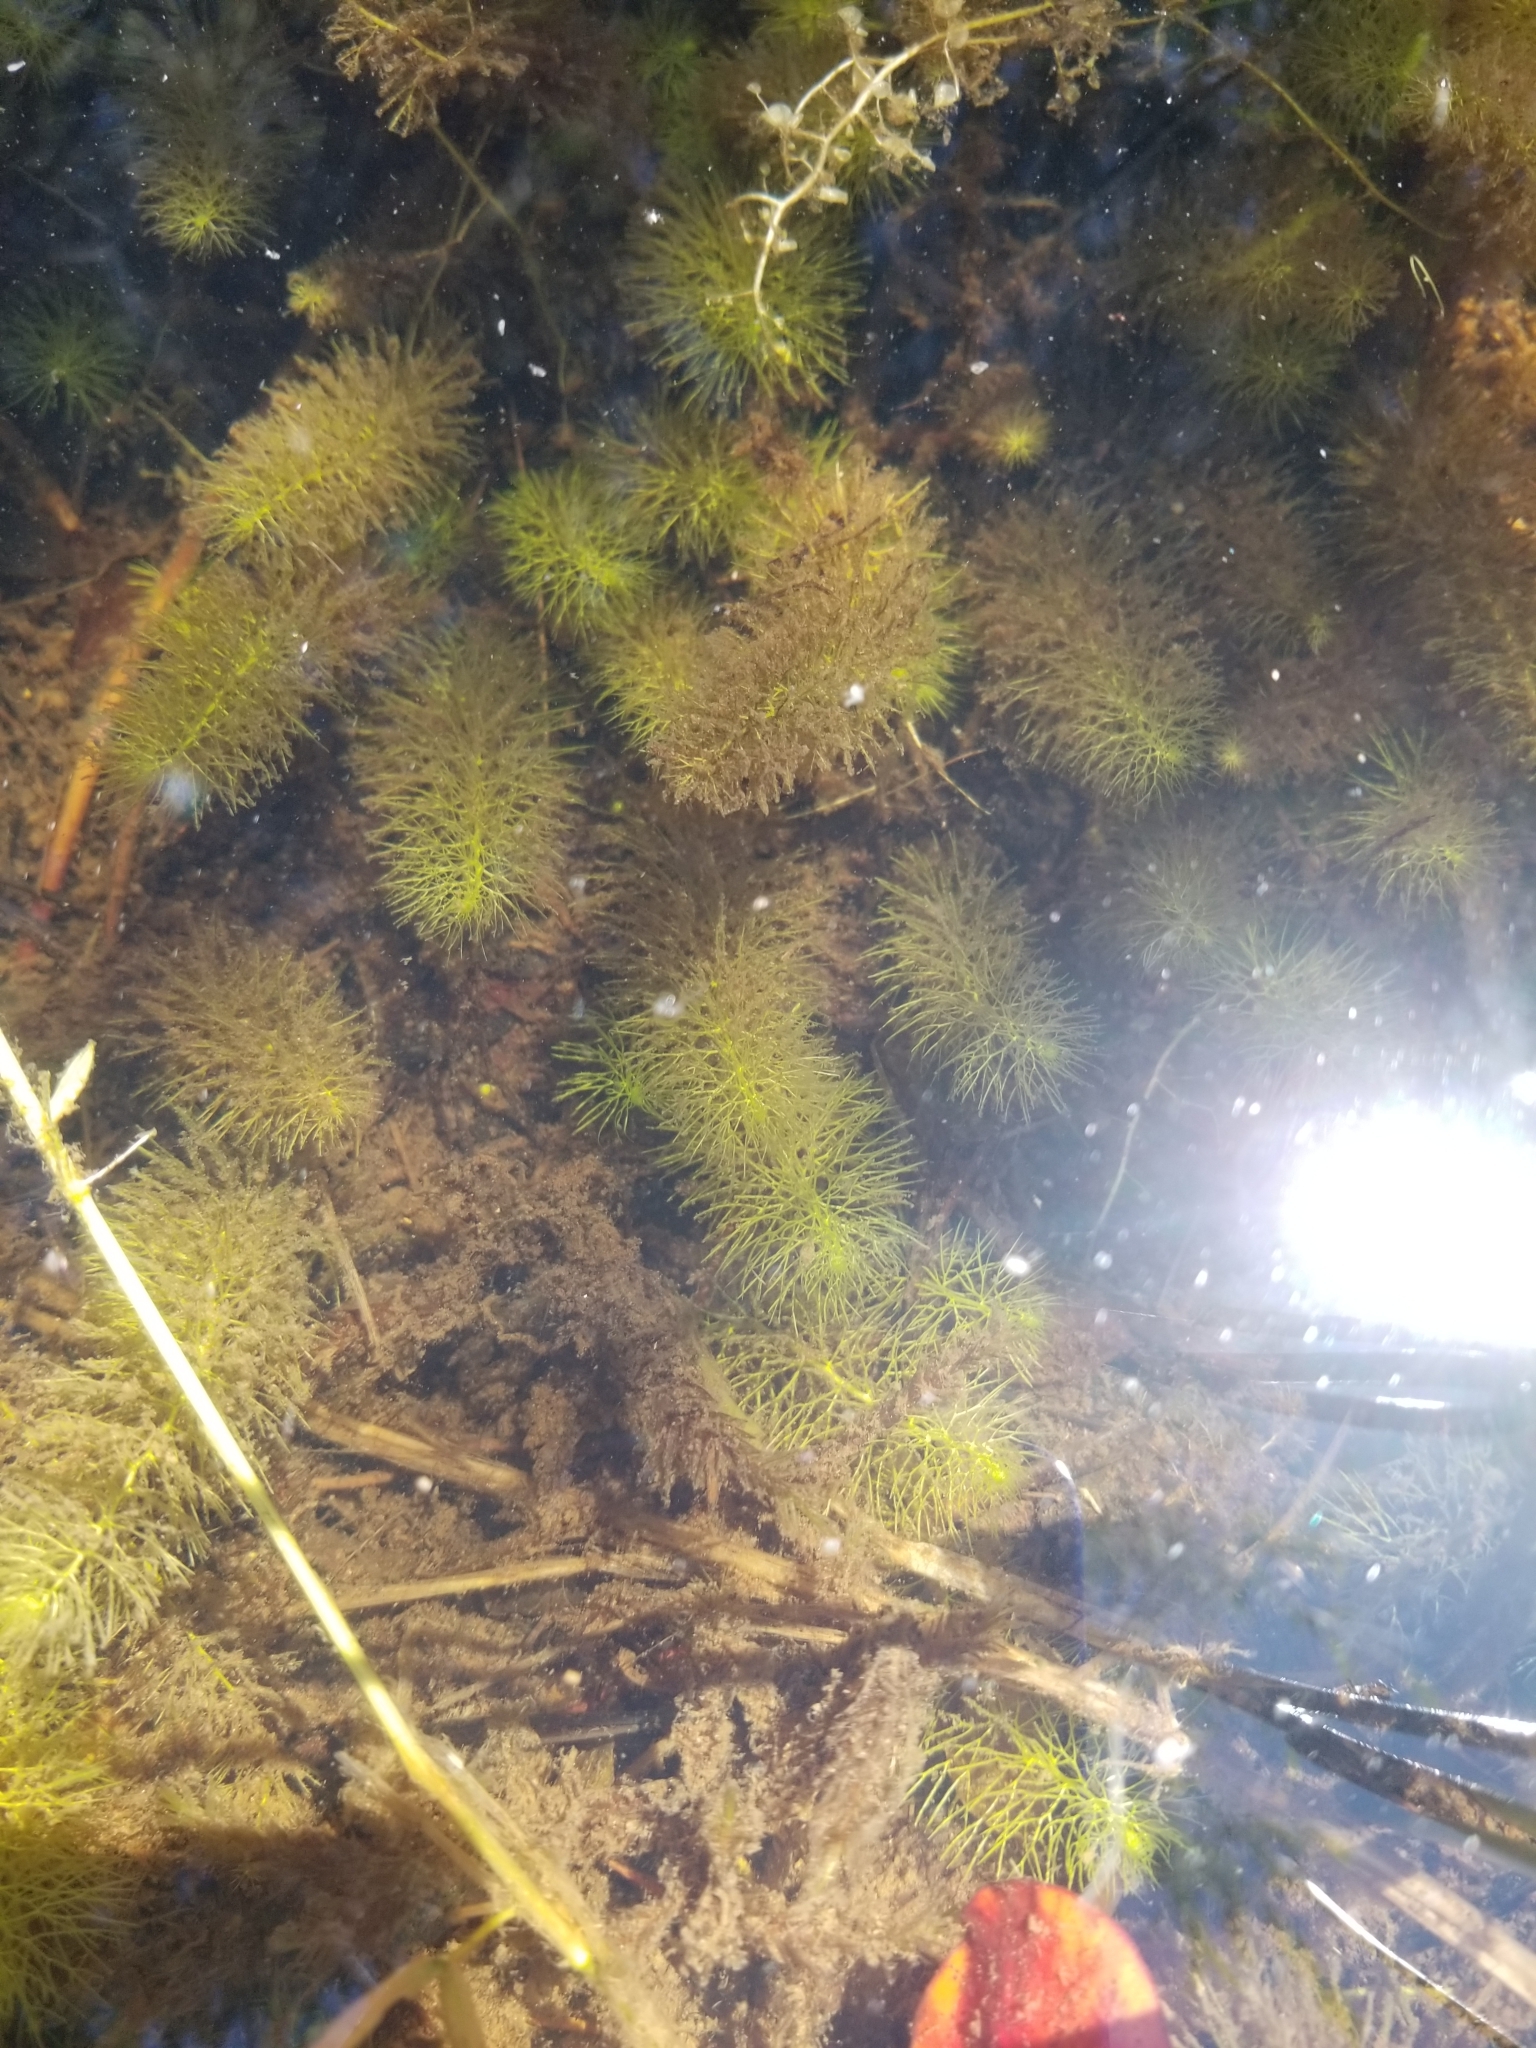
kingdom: Plantae
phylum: Tracheophyta
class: Magnoliopsida
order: Lamiales
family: Lentibulariaceae
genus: Utricularia
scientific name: Utricularia intermedia
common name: Intermediate bladderwort
